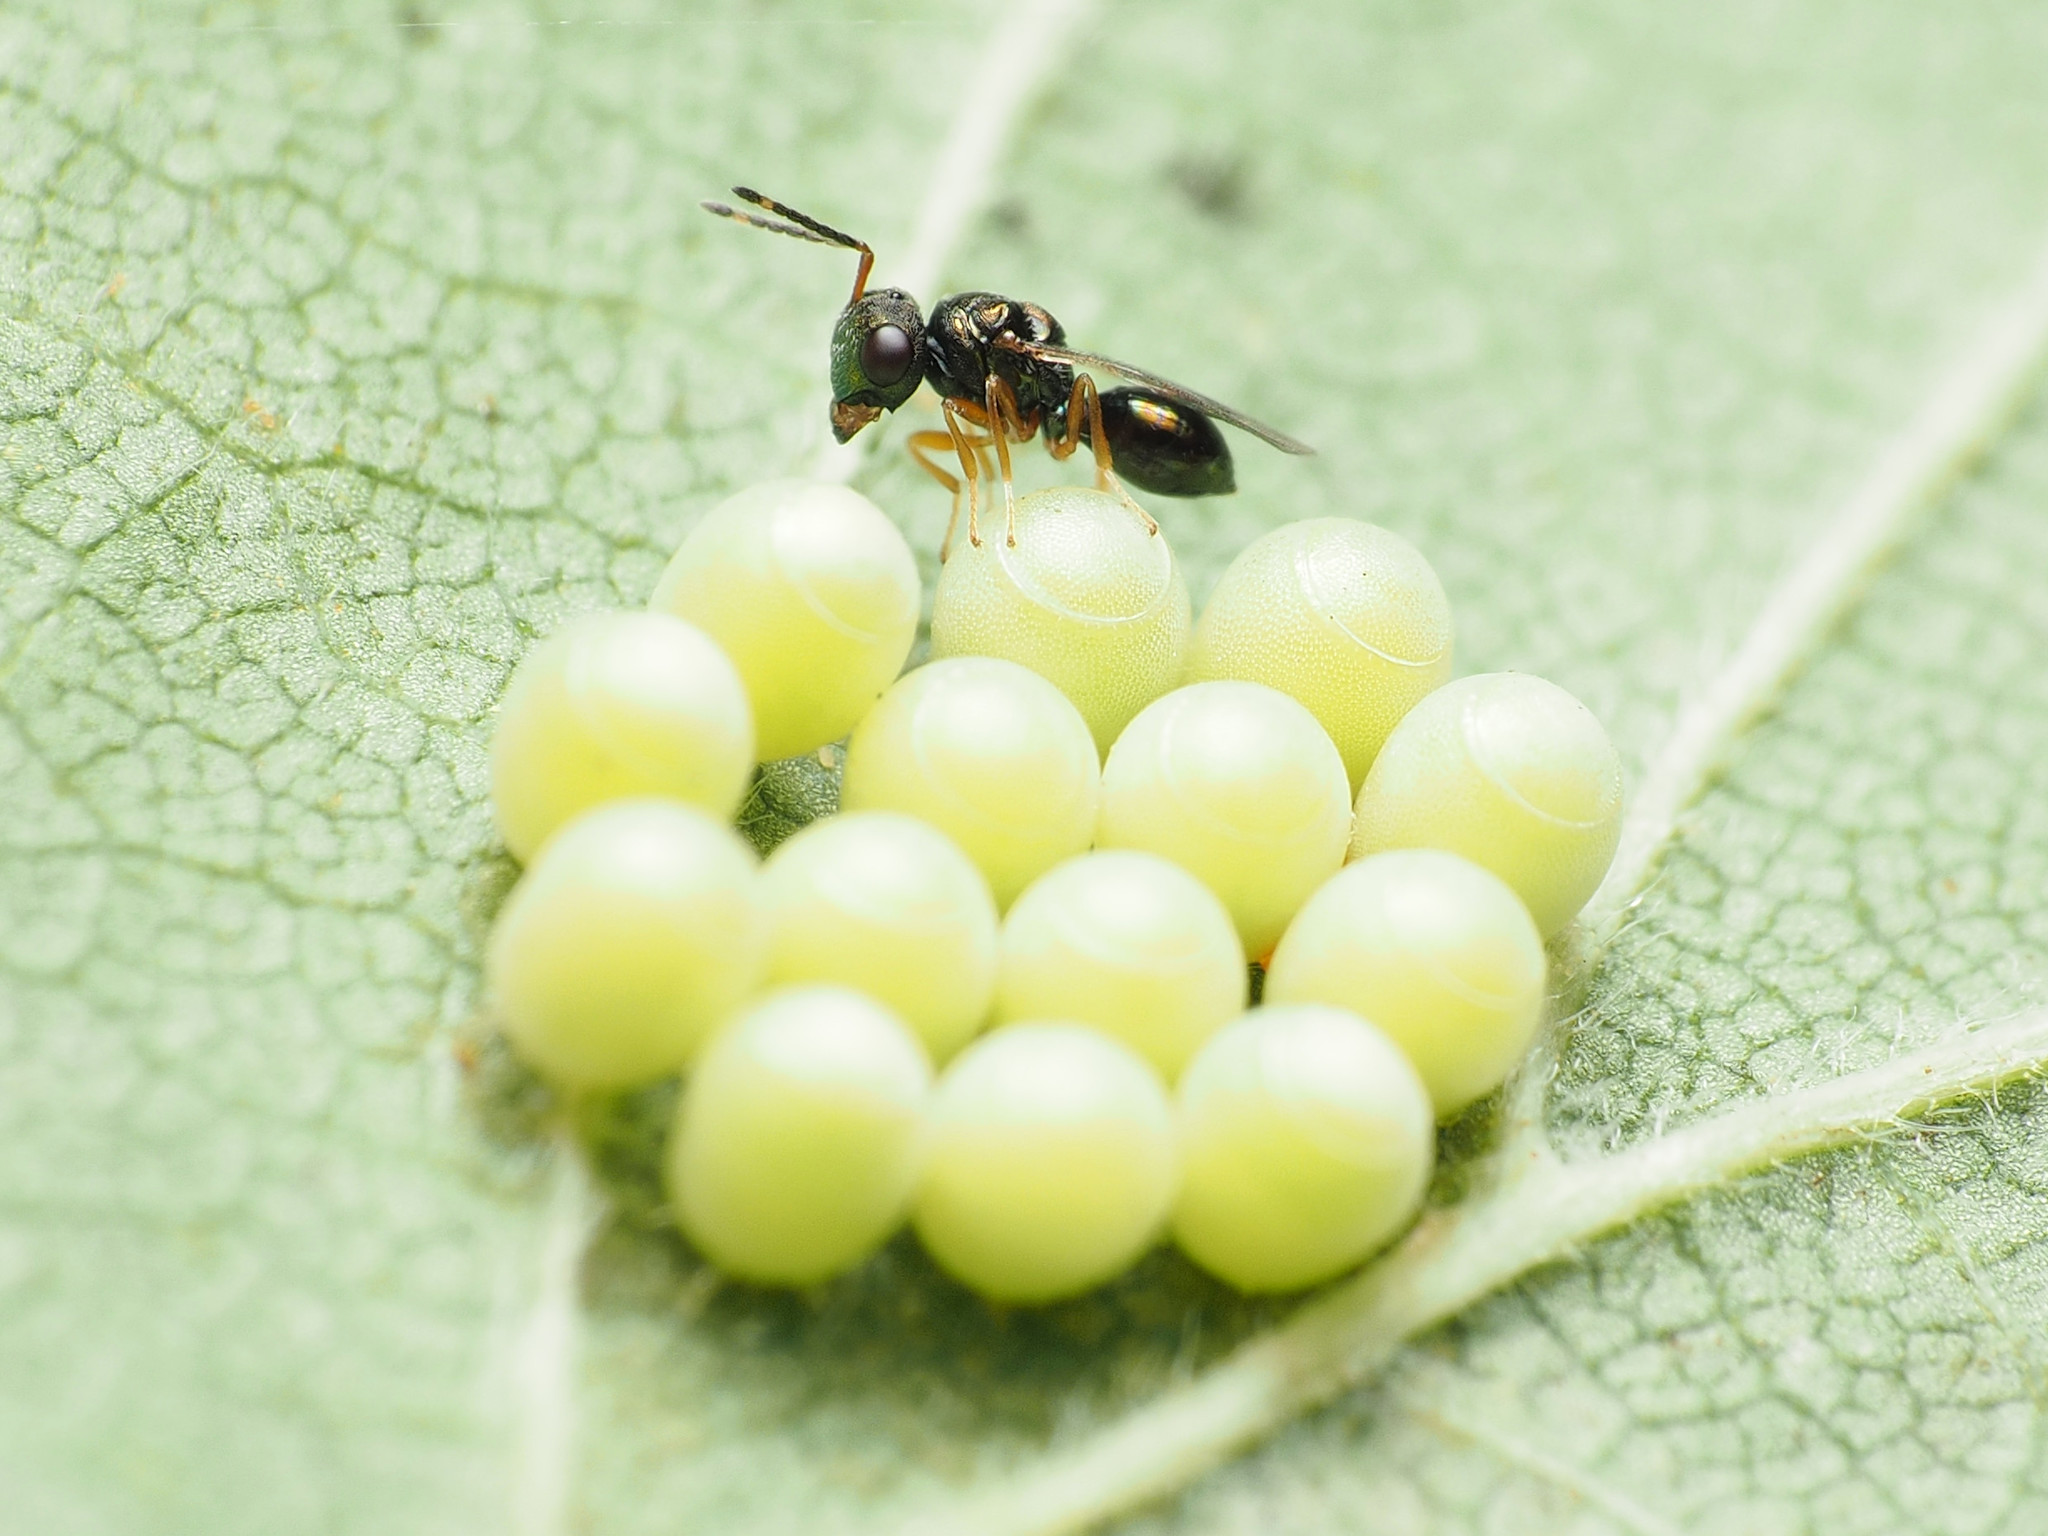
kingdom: Animalia
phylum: Arthropoda
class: Insecta
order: Hymenoptera
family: Pteromalidae
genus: Acroclisoides
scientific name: Acroclisoides sinicus
